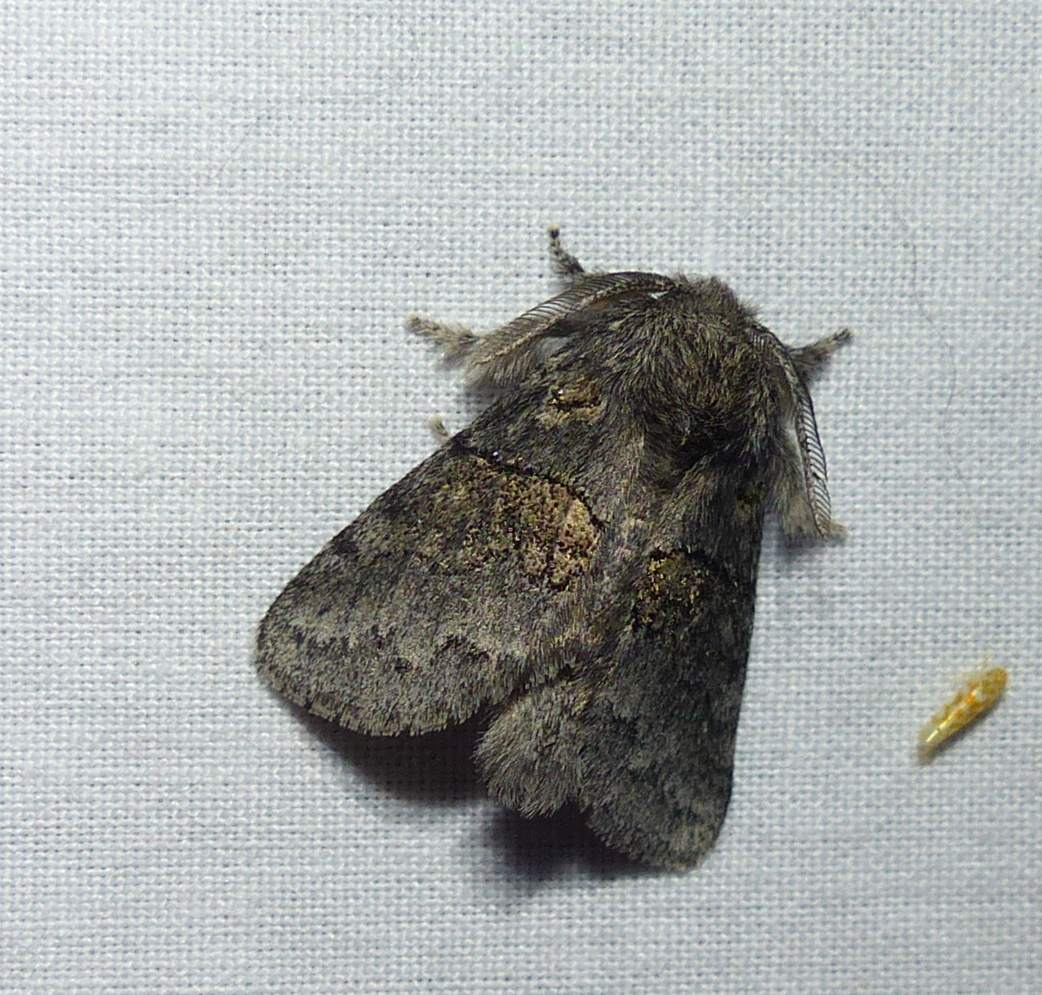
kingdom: Animalia
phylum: Arthropoda
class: Insecta
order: Lepidoptera
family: Notodontidae
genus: Gluphisia
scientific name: Gluphisia septentrionis
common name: Common gluphisia
